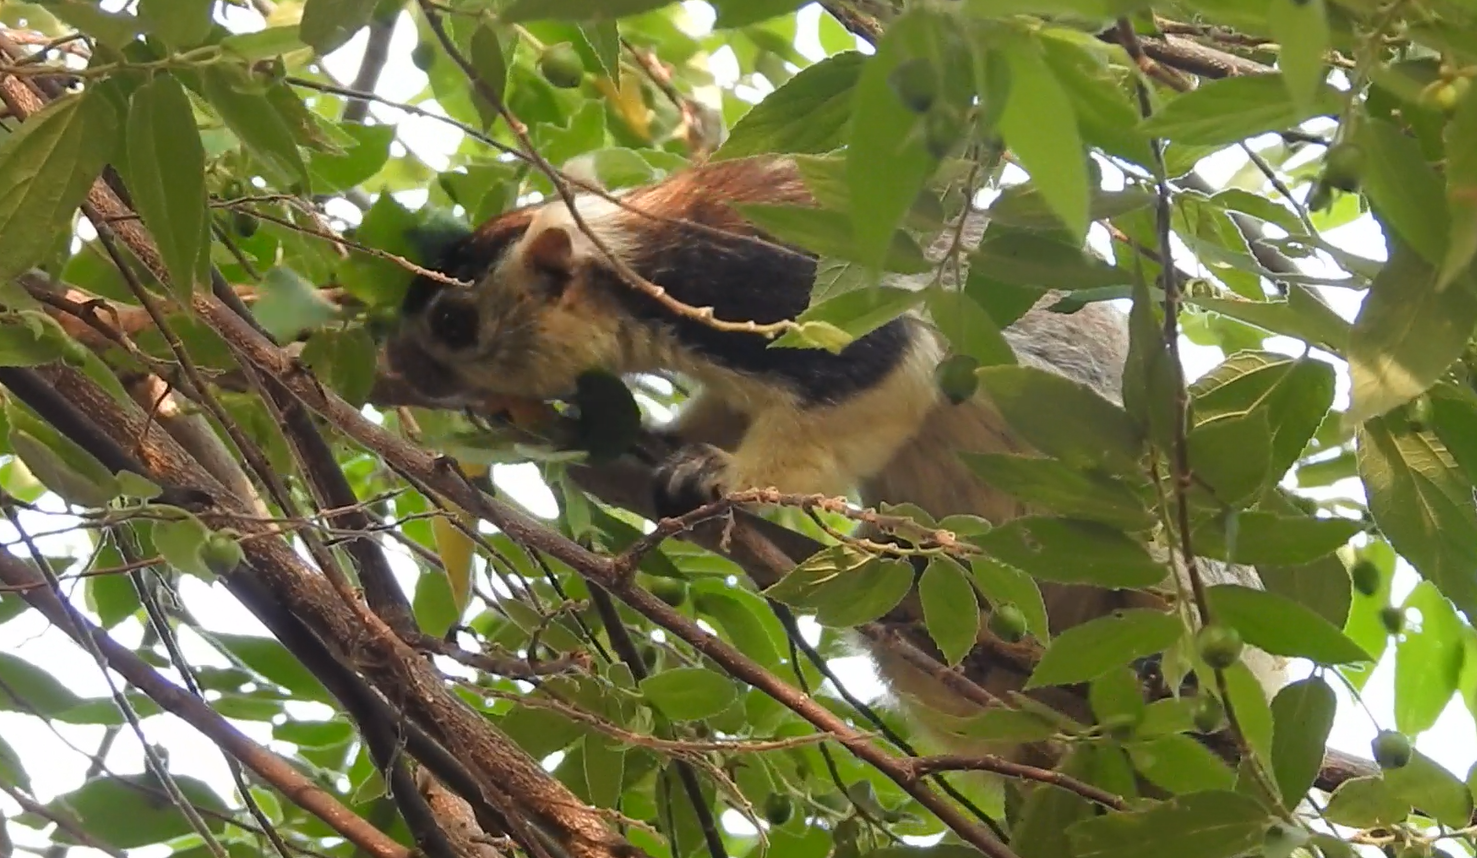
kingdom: Animalia
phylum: Chordata
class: Mammalia
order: Rodentia
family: Sciuridae
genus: Ratufa
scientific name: Ratufa macroura
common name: Sri lankan giant squirrel
